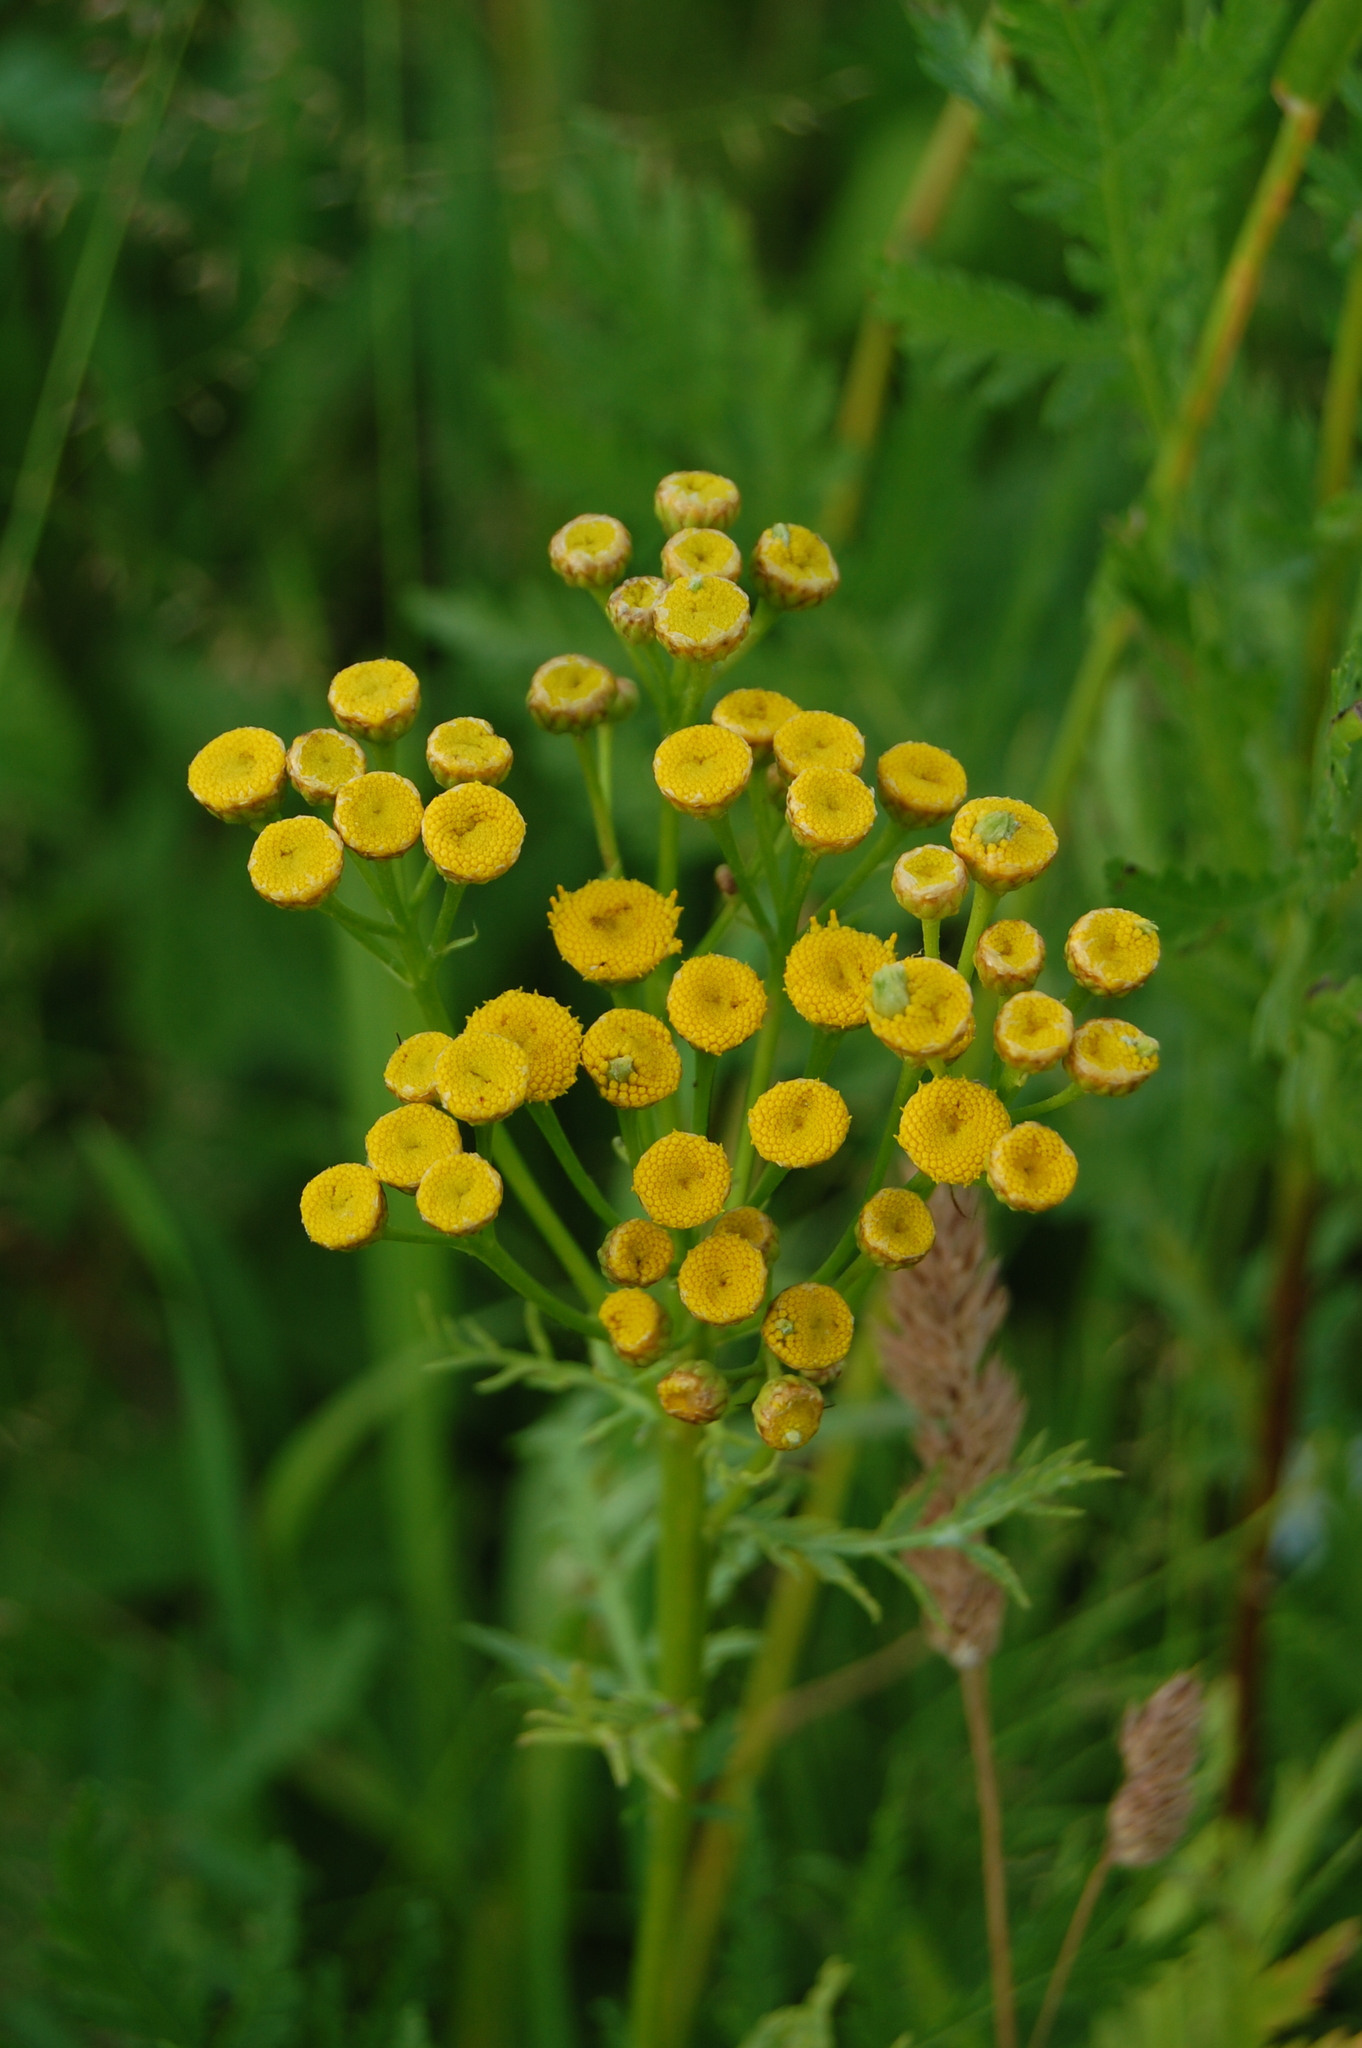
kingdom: Plantae
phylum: Tracheophyta
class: Magnoliopsida
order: Asterales
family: Asteraceae
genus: Tanacetum
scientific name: Tanacetum vulgare
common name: Common tansy
